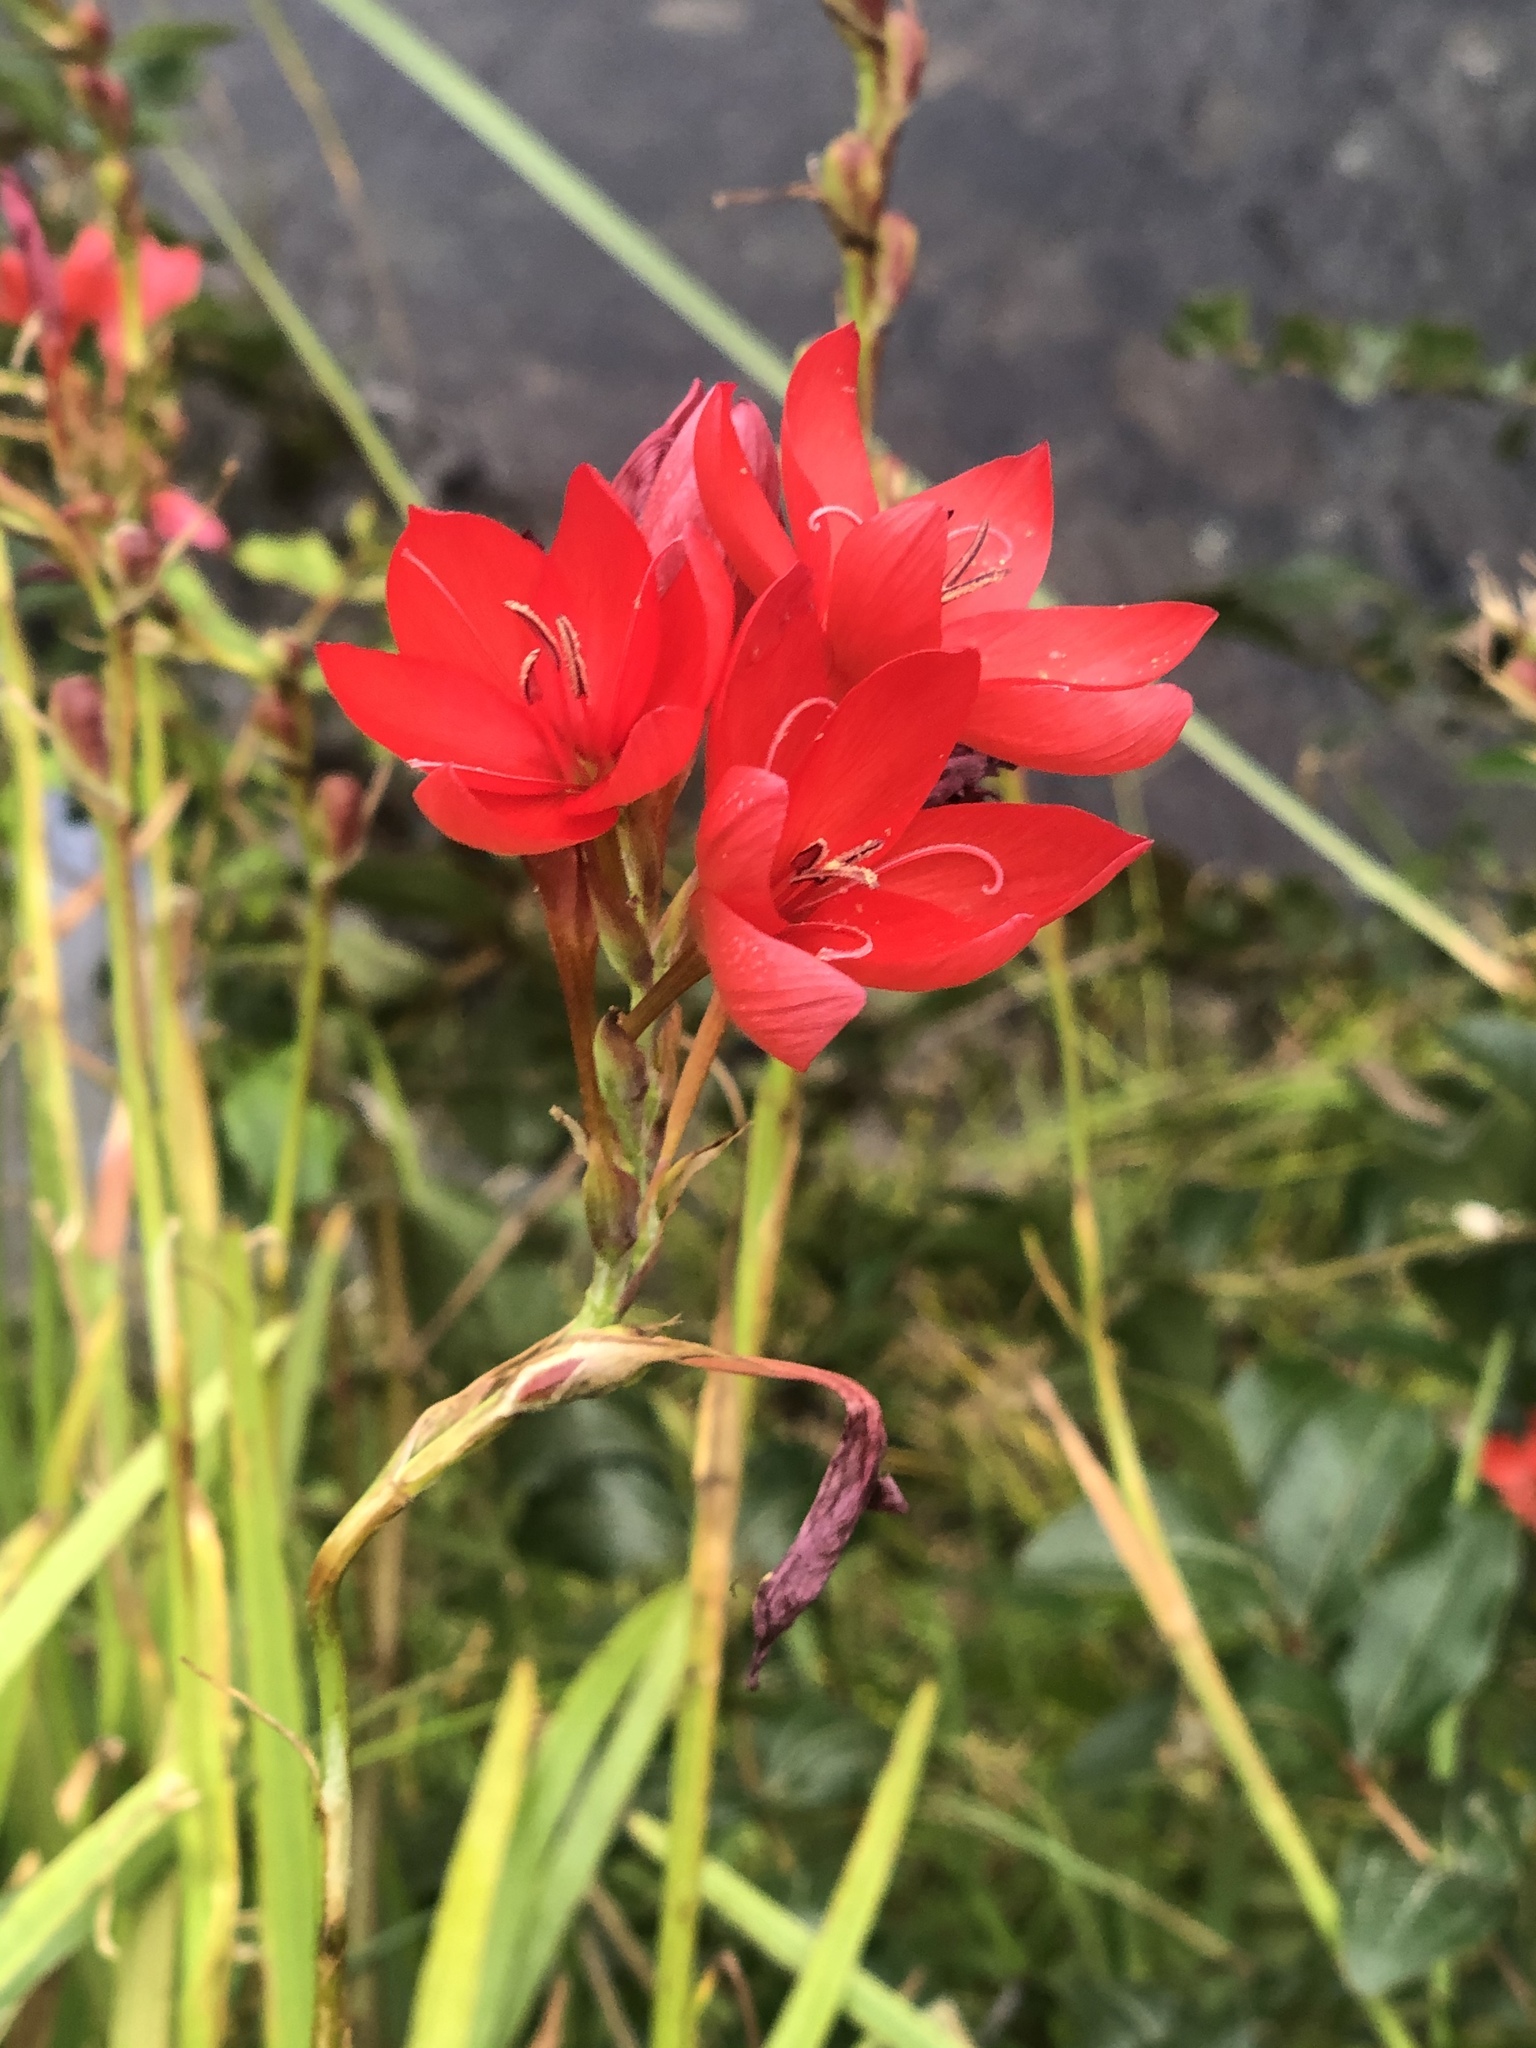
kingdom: Plantae
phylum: Tracheophyta
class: Liliopsida
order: Asparagales
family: Iridaceae
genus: Hesperantha
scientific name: Hesperantha coccinea
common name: River-lily
